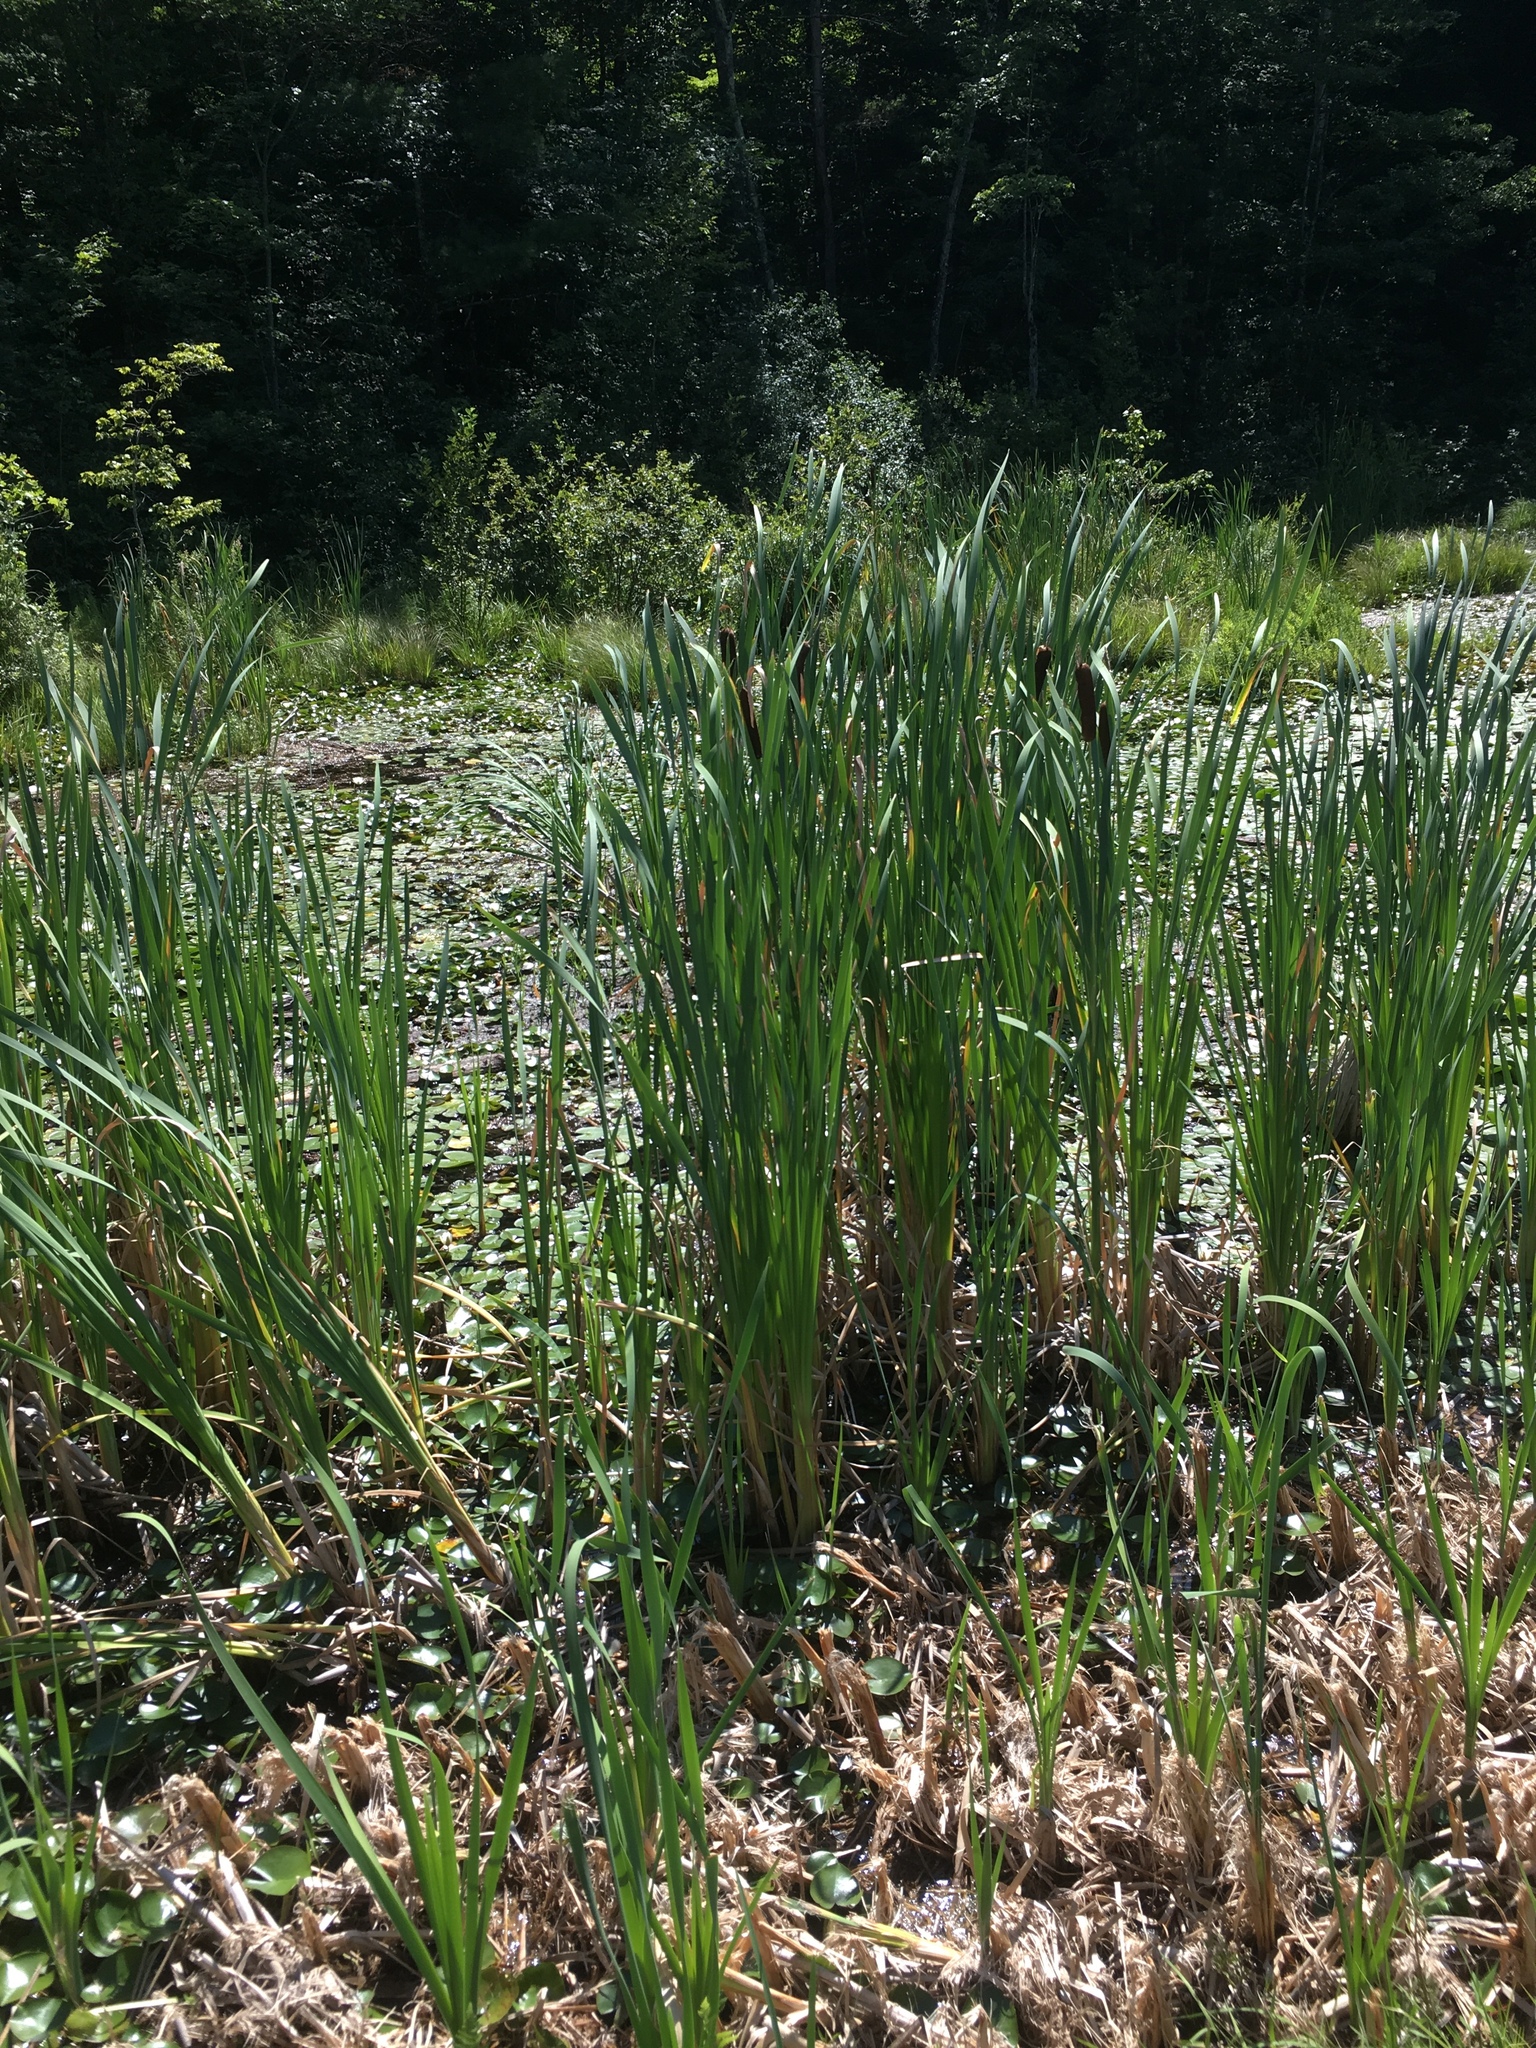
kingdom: Plantae
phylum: Tracheophyta
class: Liliopsida
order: Poales
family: Typhaceae
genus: Typha
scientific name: Typha latifolia
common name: Broadleaf cattail
